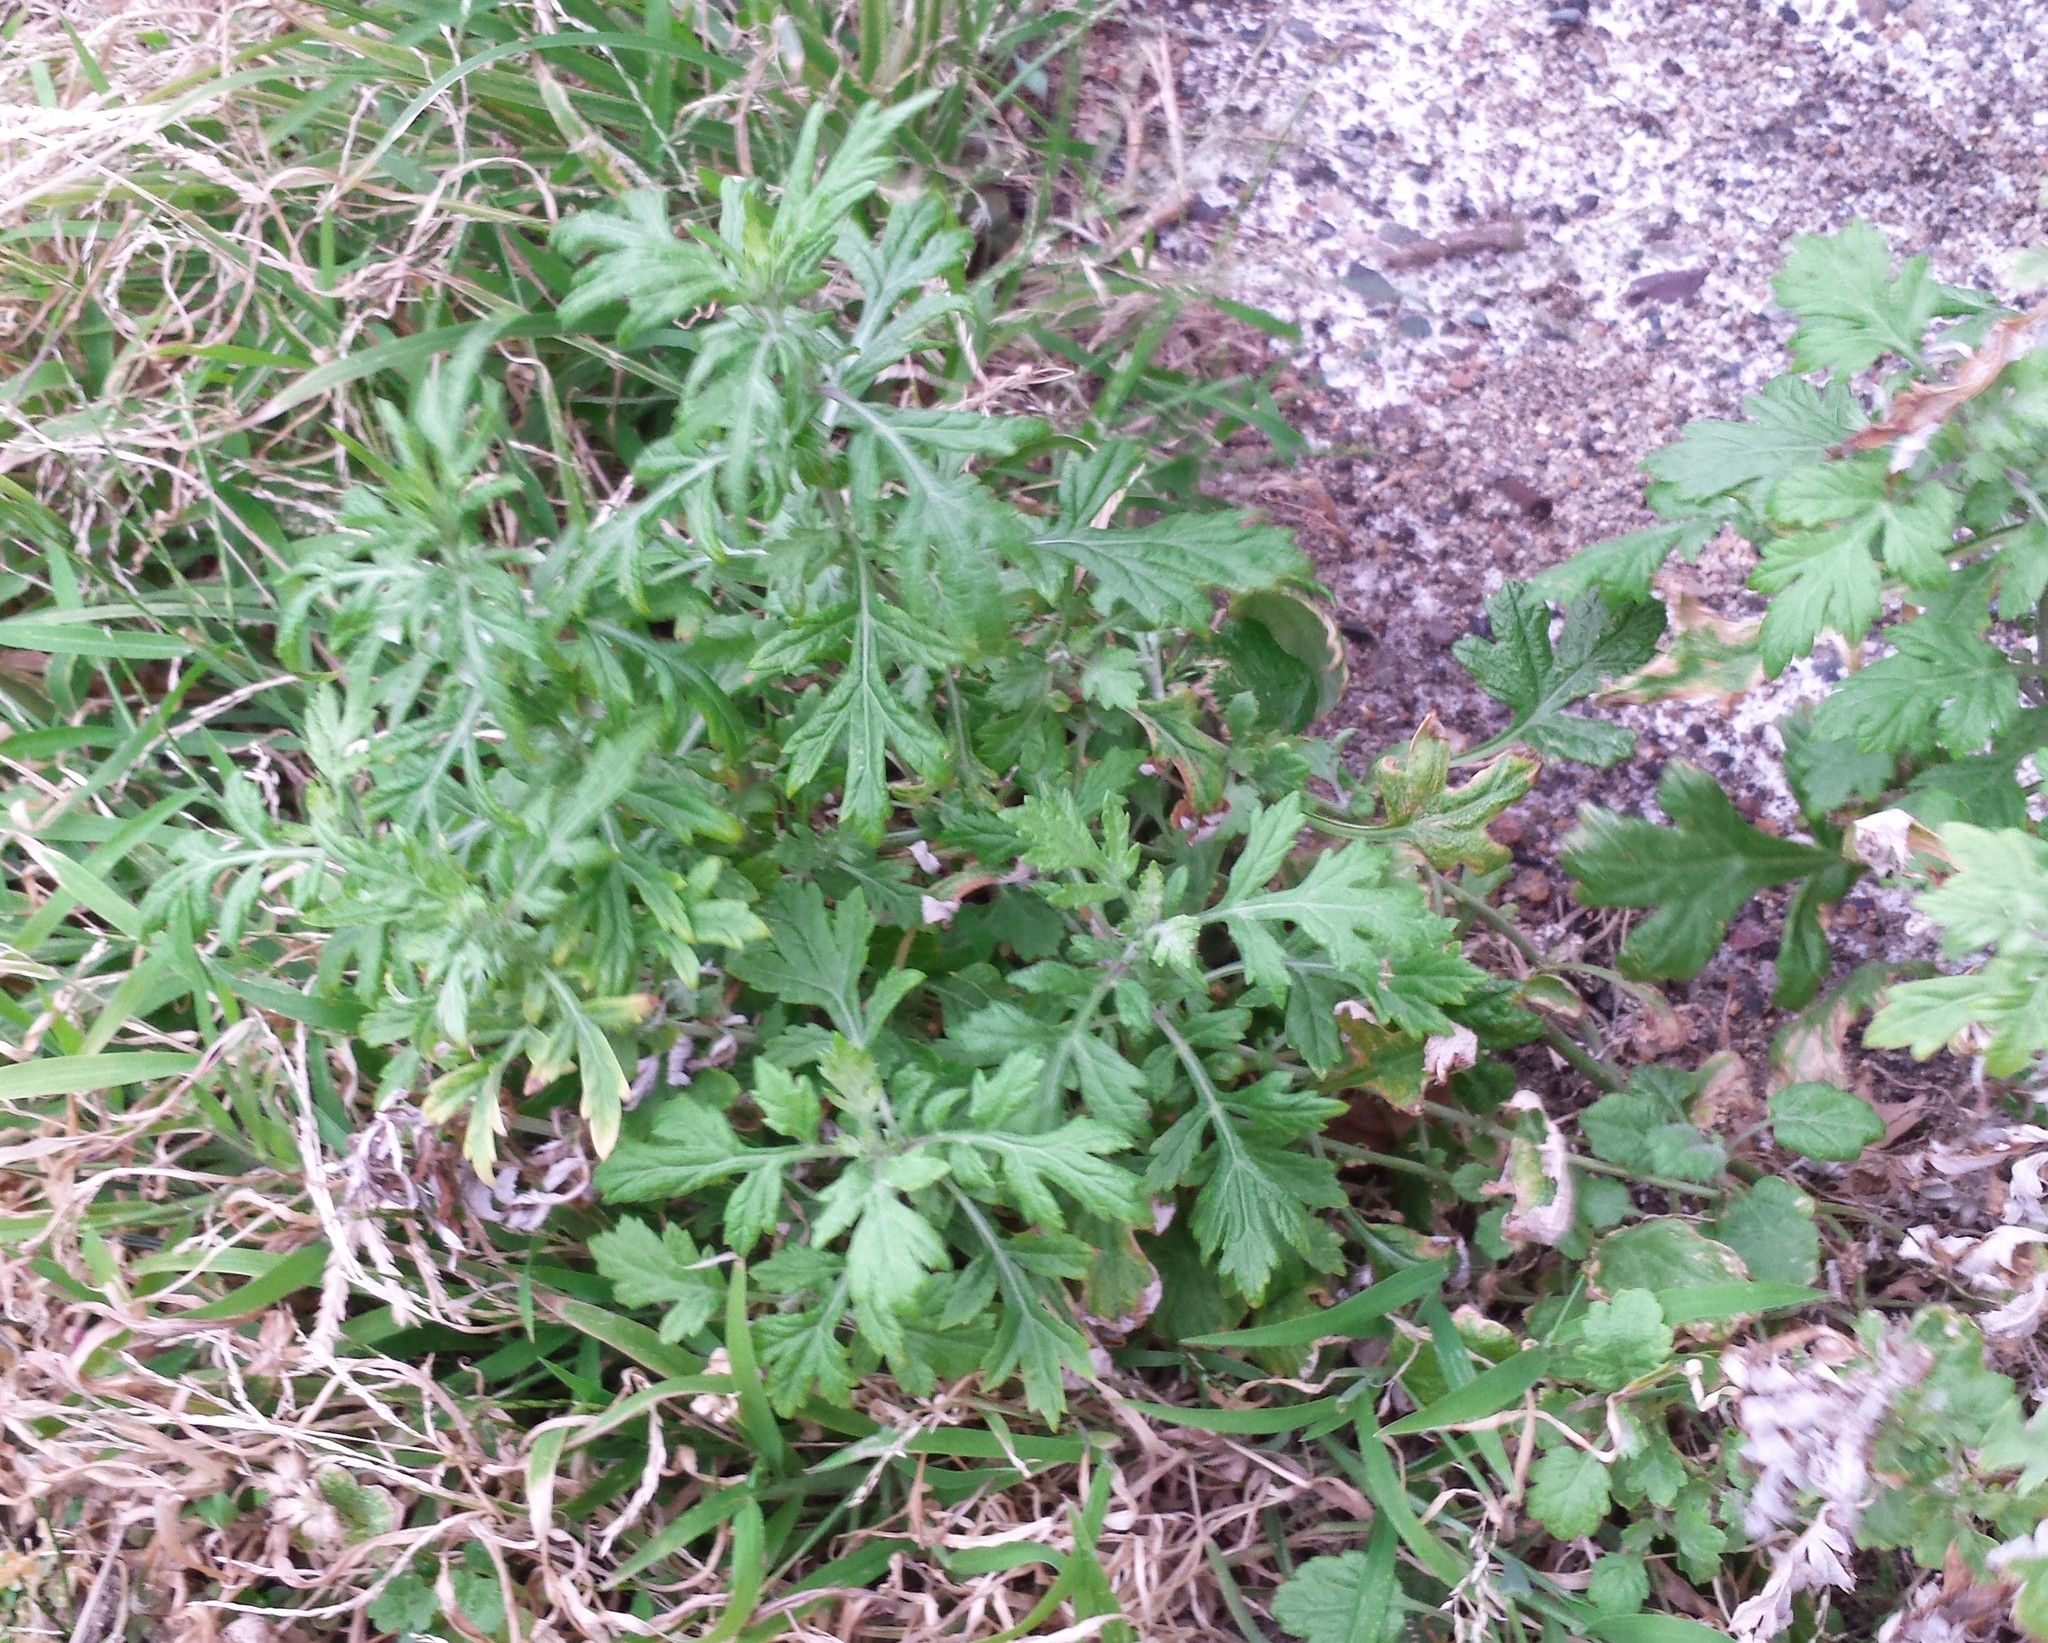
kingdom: Plantae
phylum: Tracheophyta
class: Magnoliopsida
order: Asterales
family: Asteraceae
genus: Artemisia
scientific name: Artemisia vulgaris
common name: Mugwort
